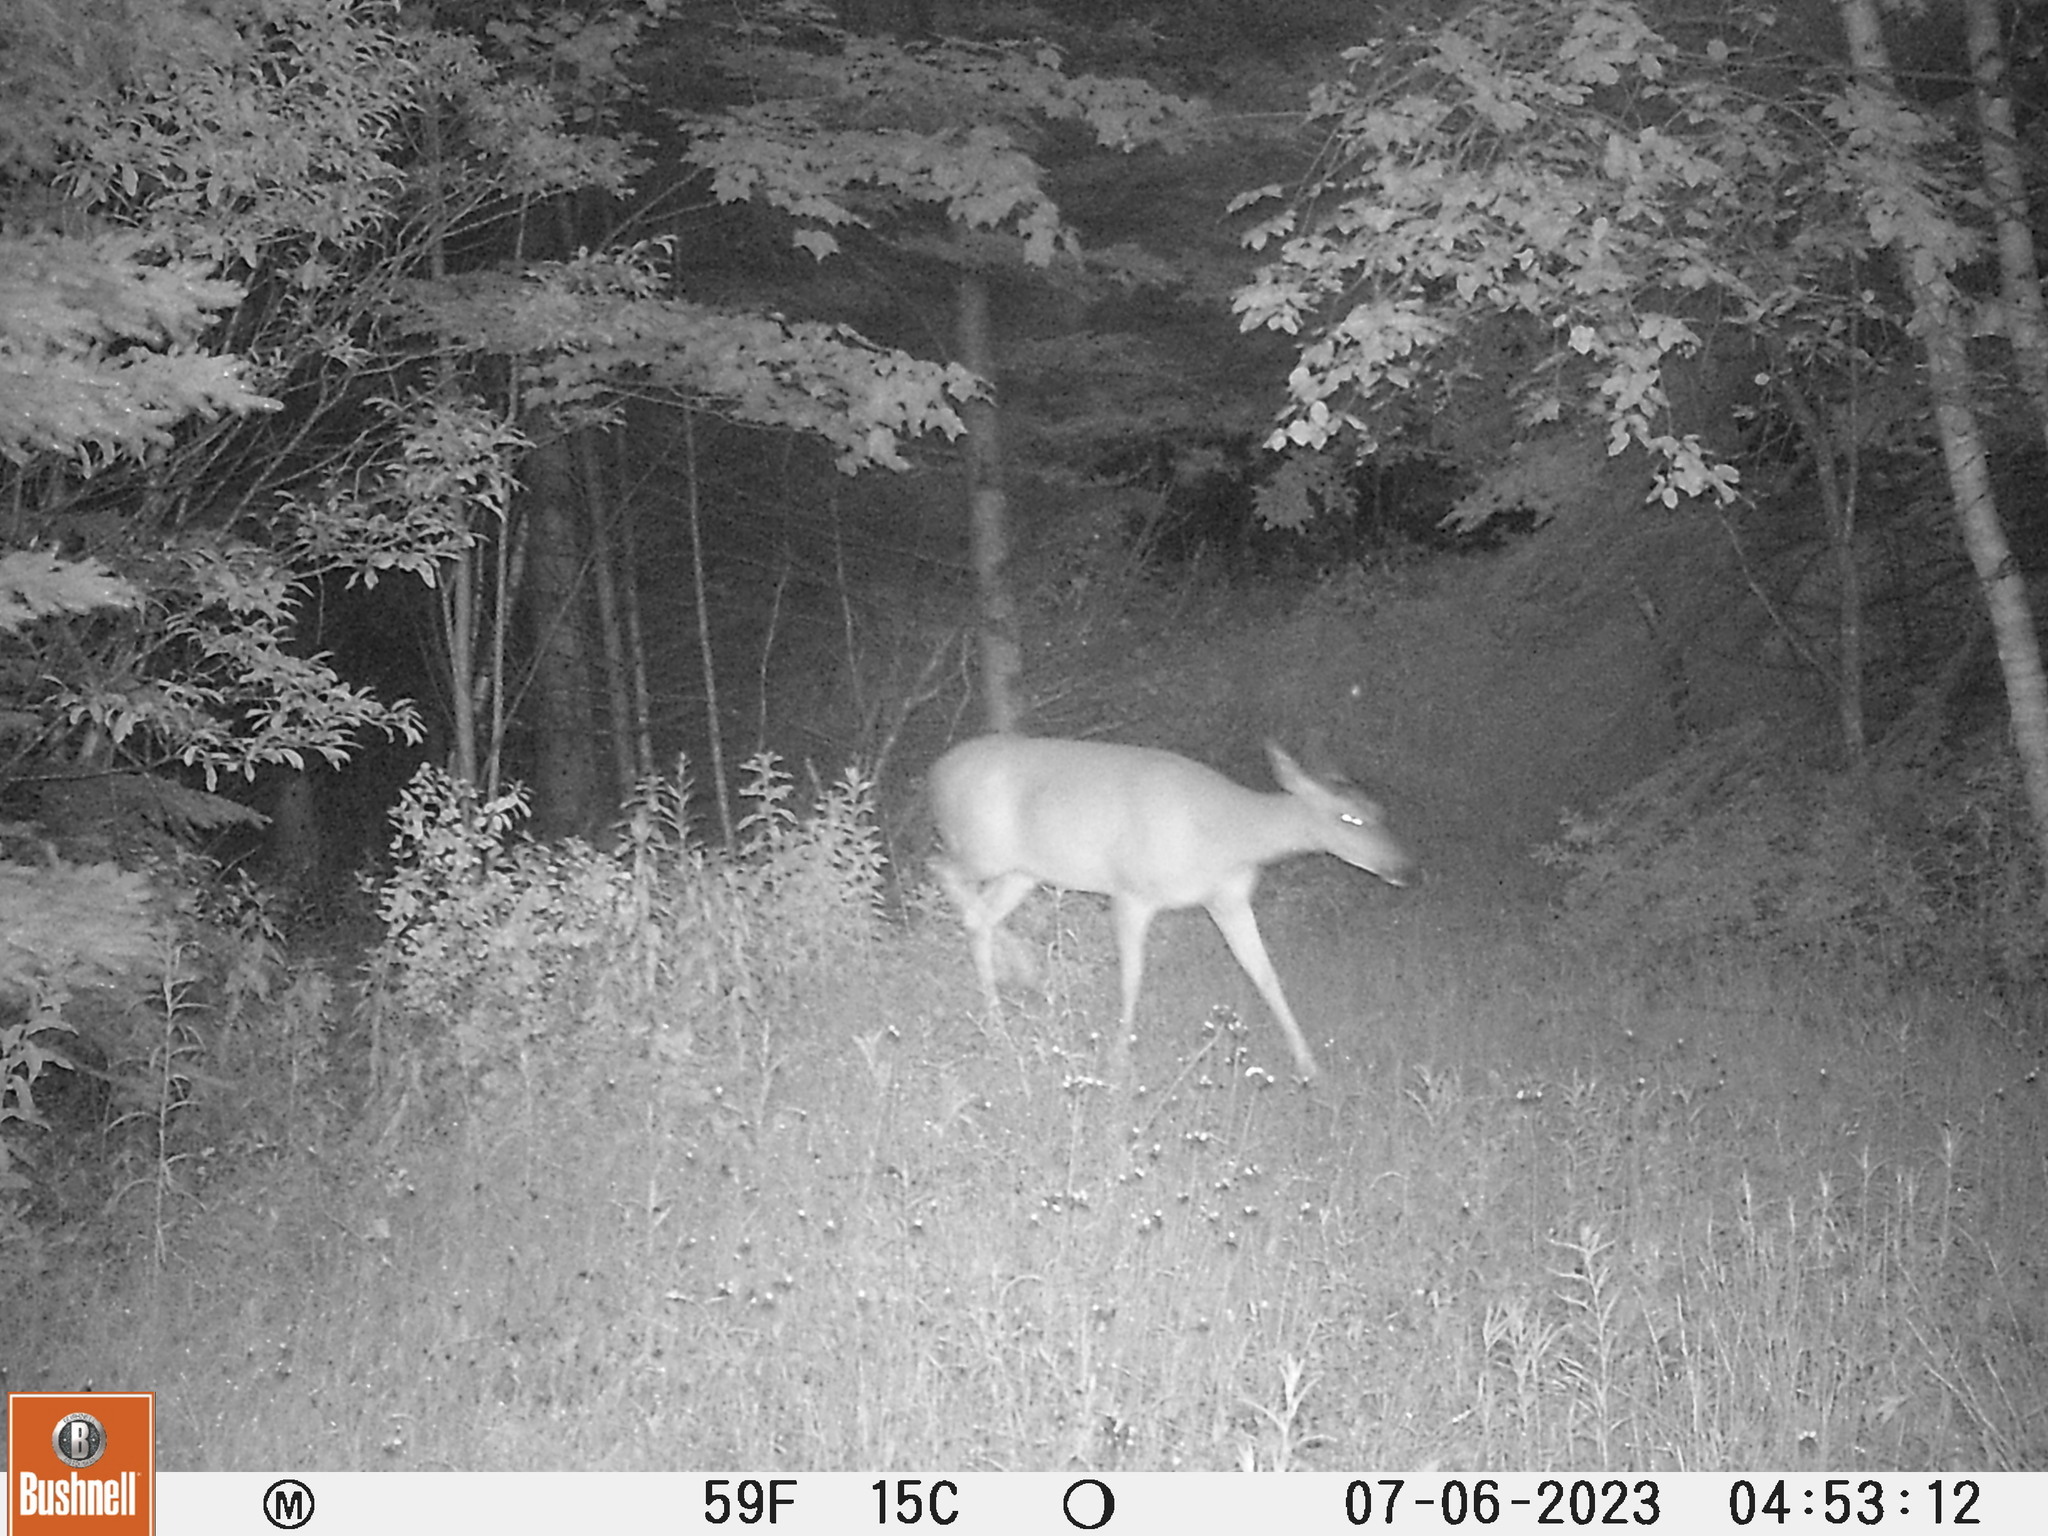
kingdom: Animalia
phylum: Chordata
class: Mammalia
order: Artiodactyla
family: Cervidae
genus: Odocoileus
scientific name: Odocoileus virginianus
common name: White-tailed deer
